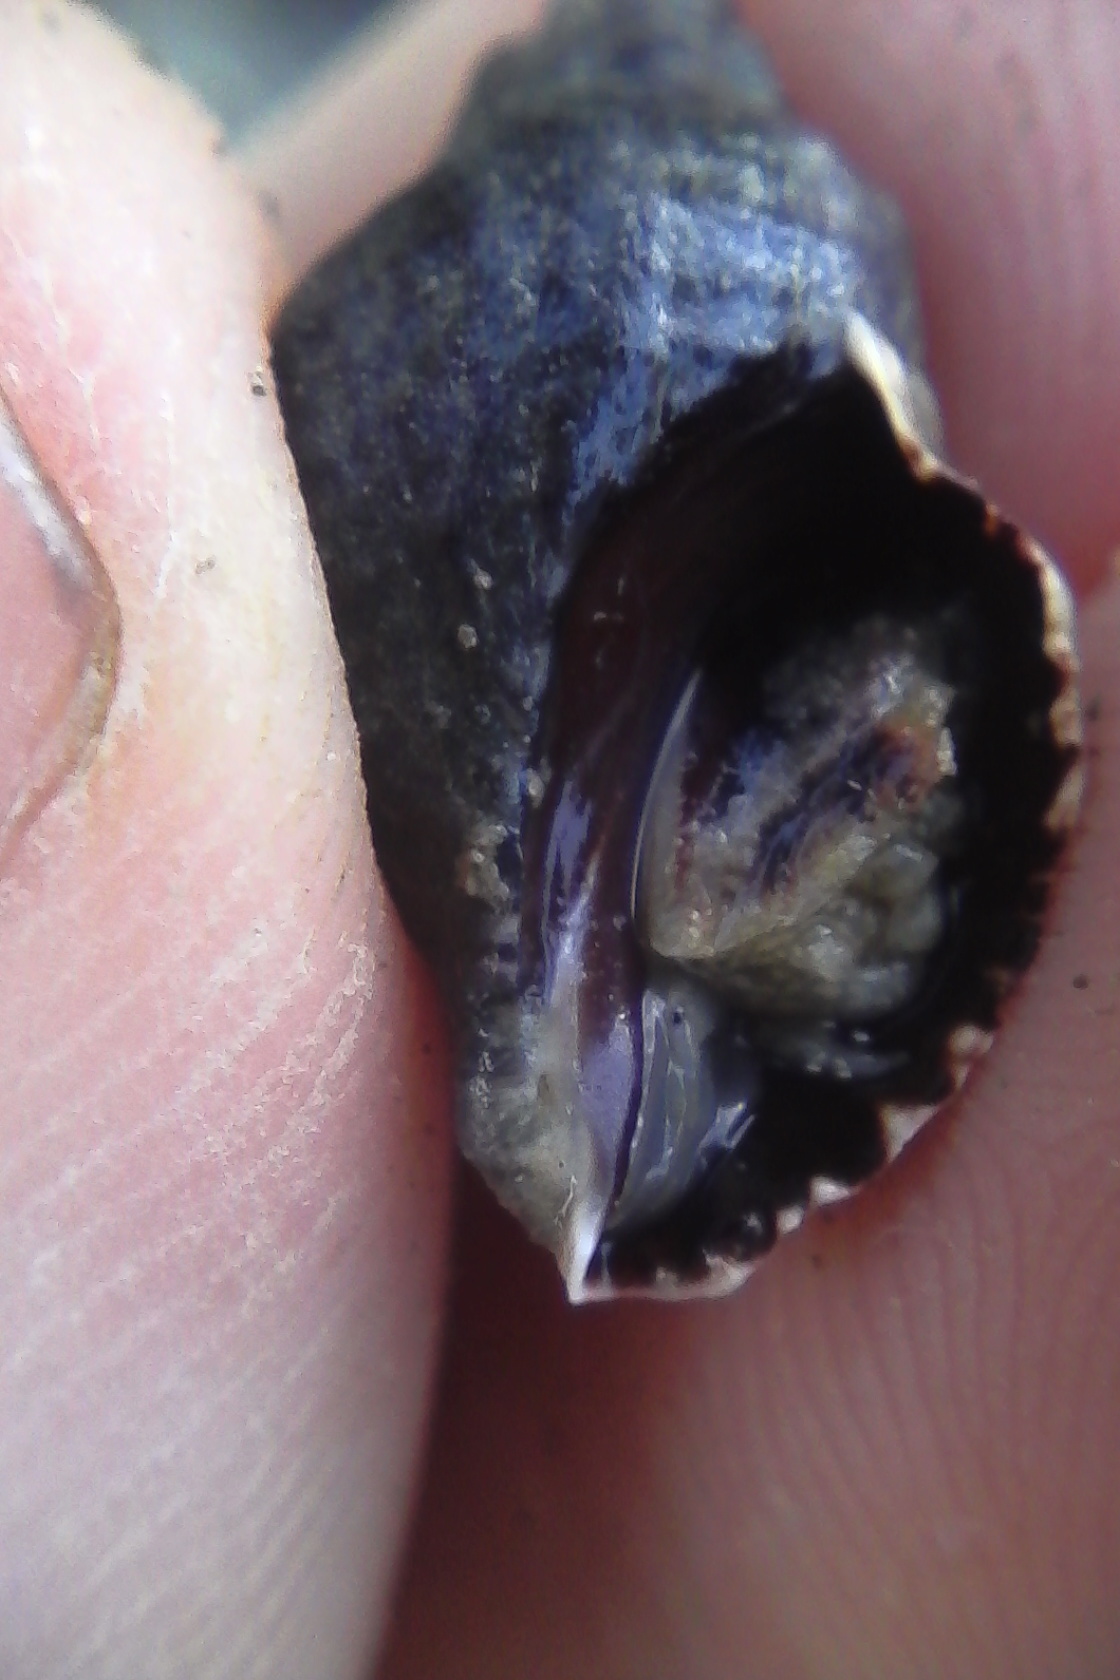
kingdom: Animalia
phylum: Mollusca
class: Gastropoda
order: Neogastropoda
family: Muricidae
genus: Haustrum
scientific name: Haustrum albomarginatum
